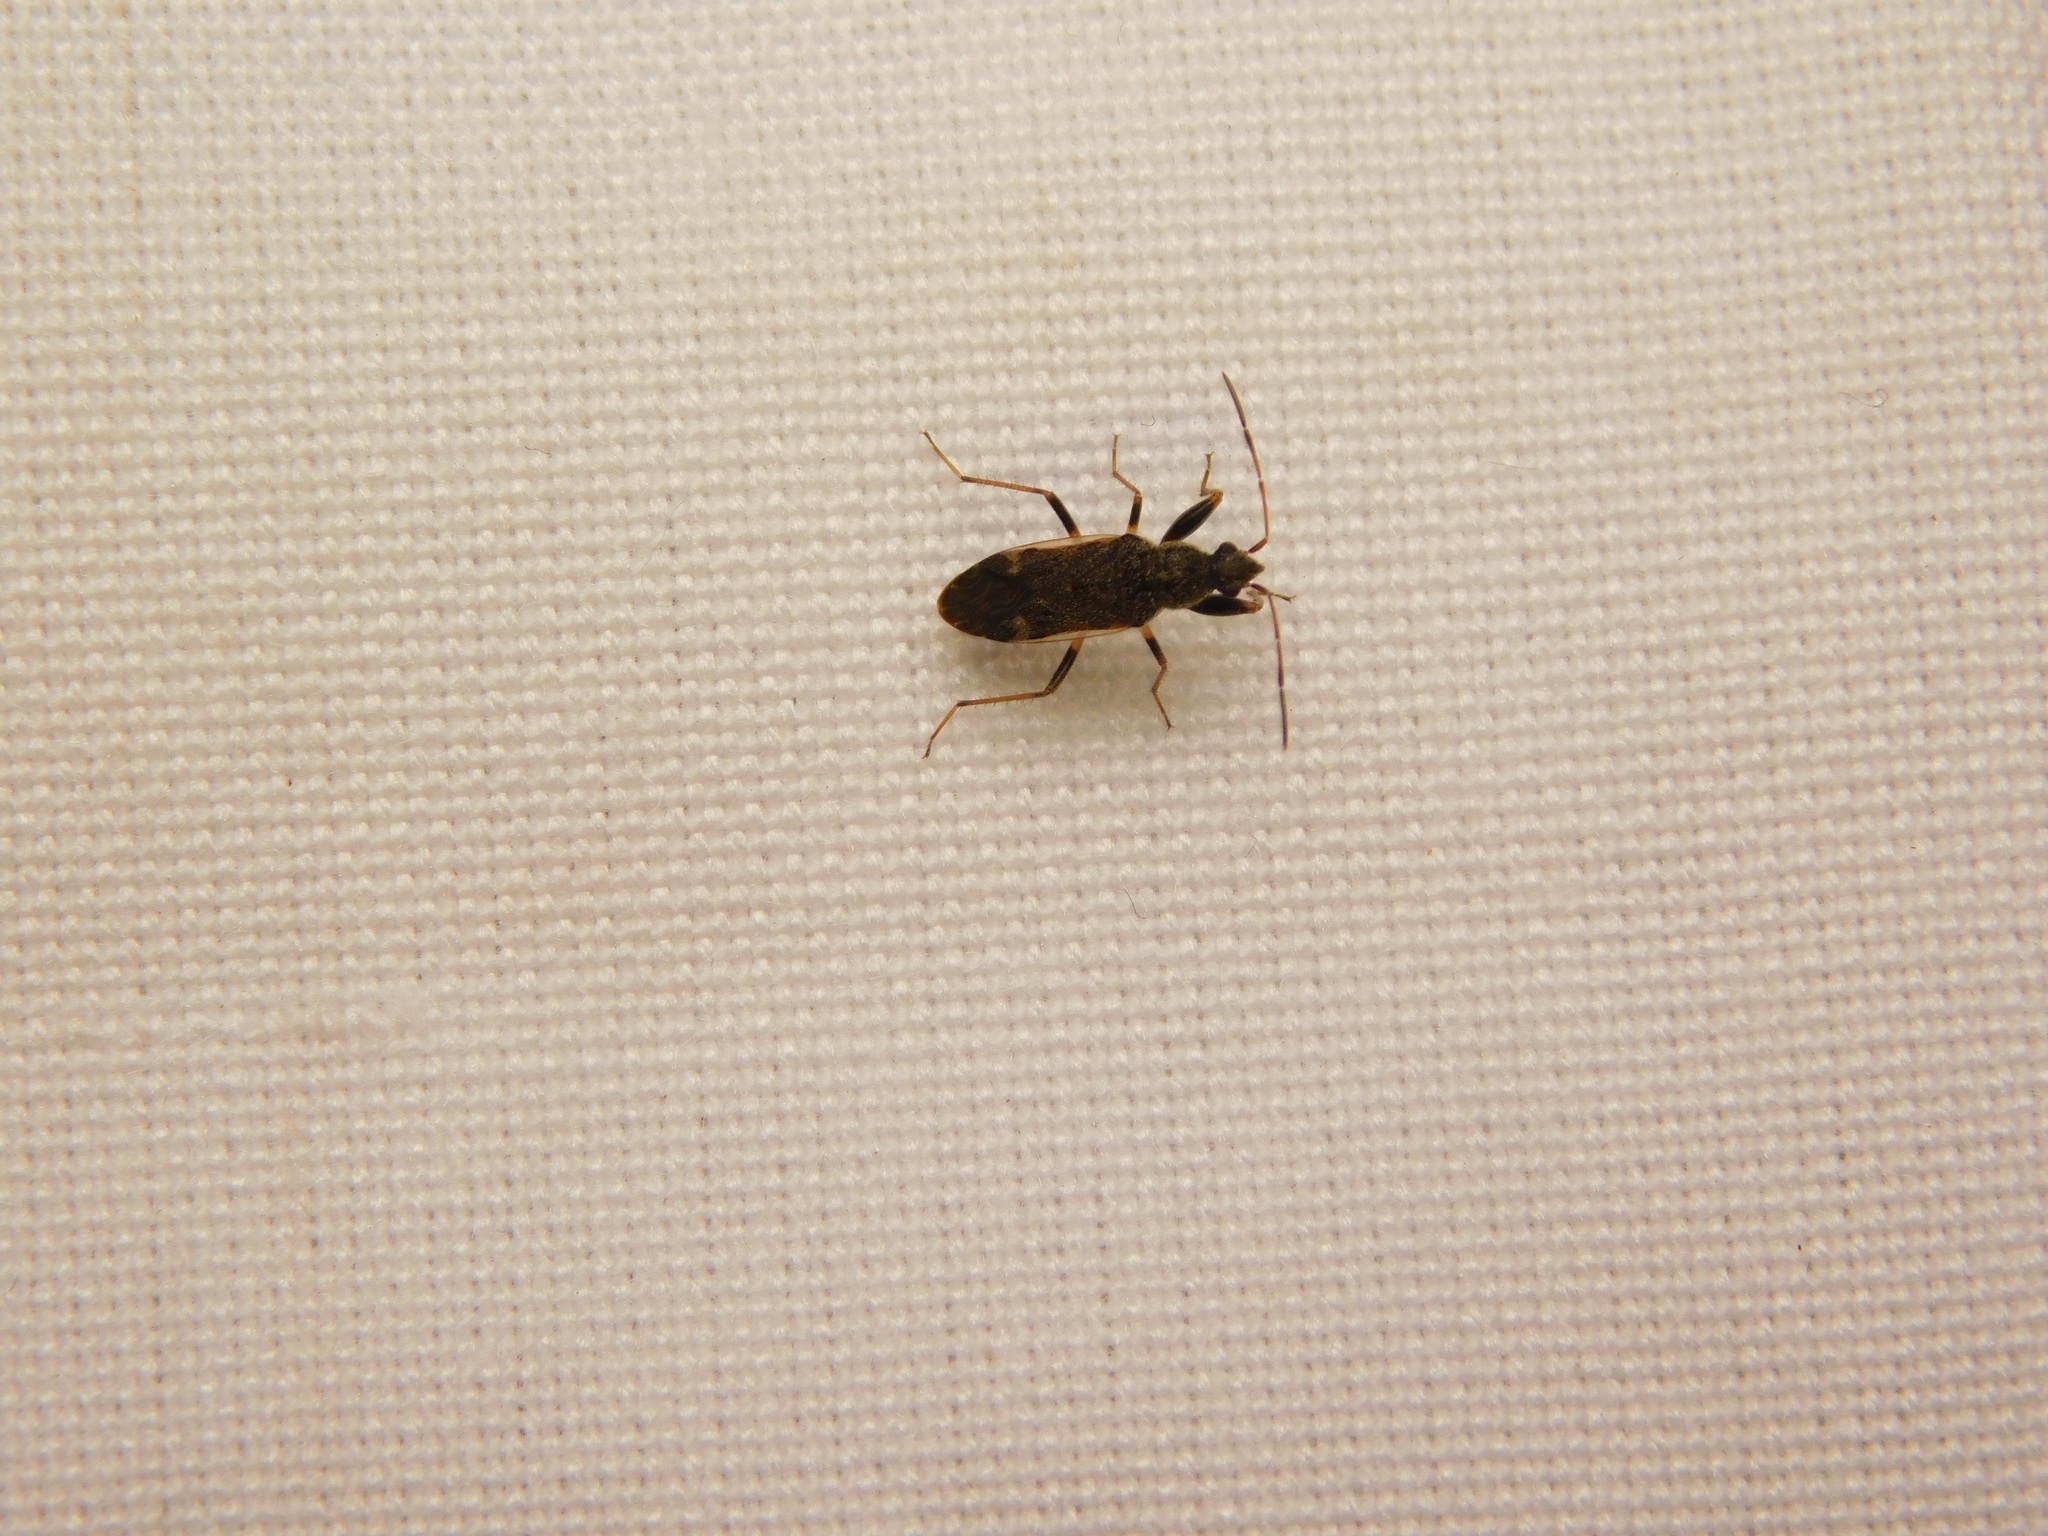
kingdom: Animalia
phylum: Arthropoda
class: Insecta
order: Hemiptera
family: Rhyparochromidae
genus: Horridipamera
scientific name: Horridipamera nietneri
